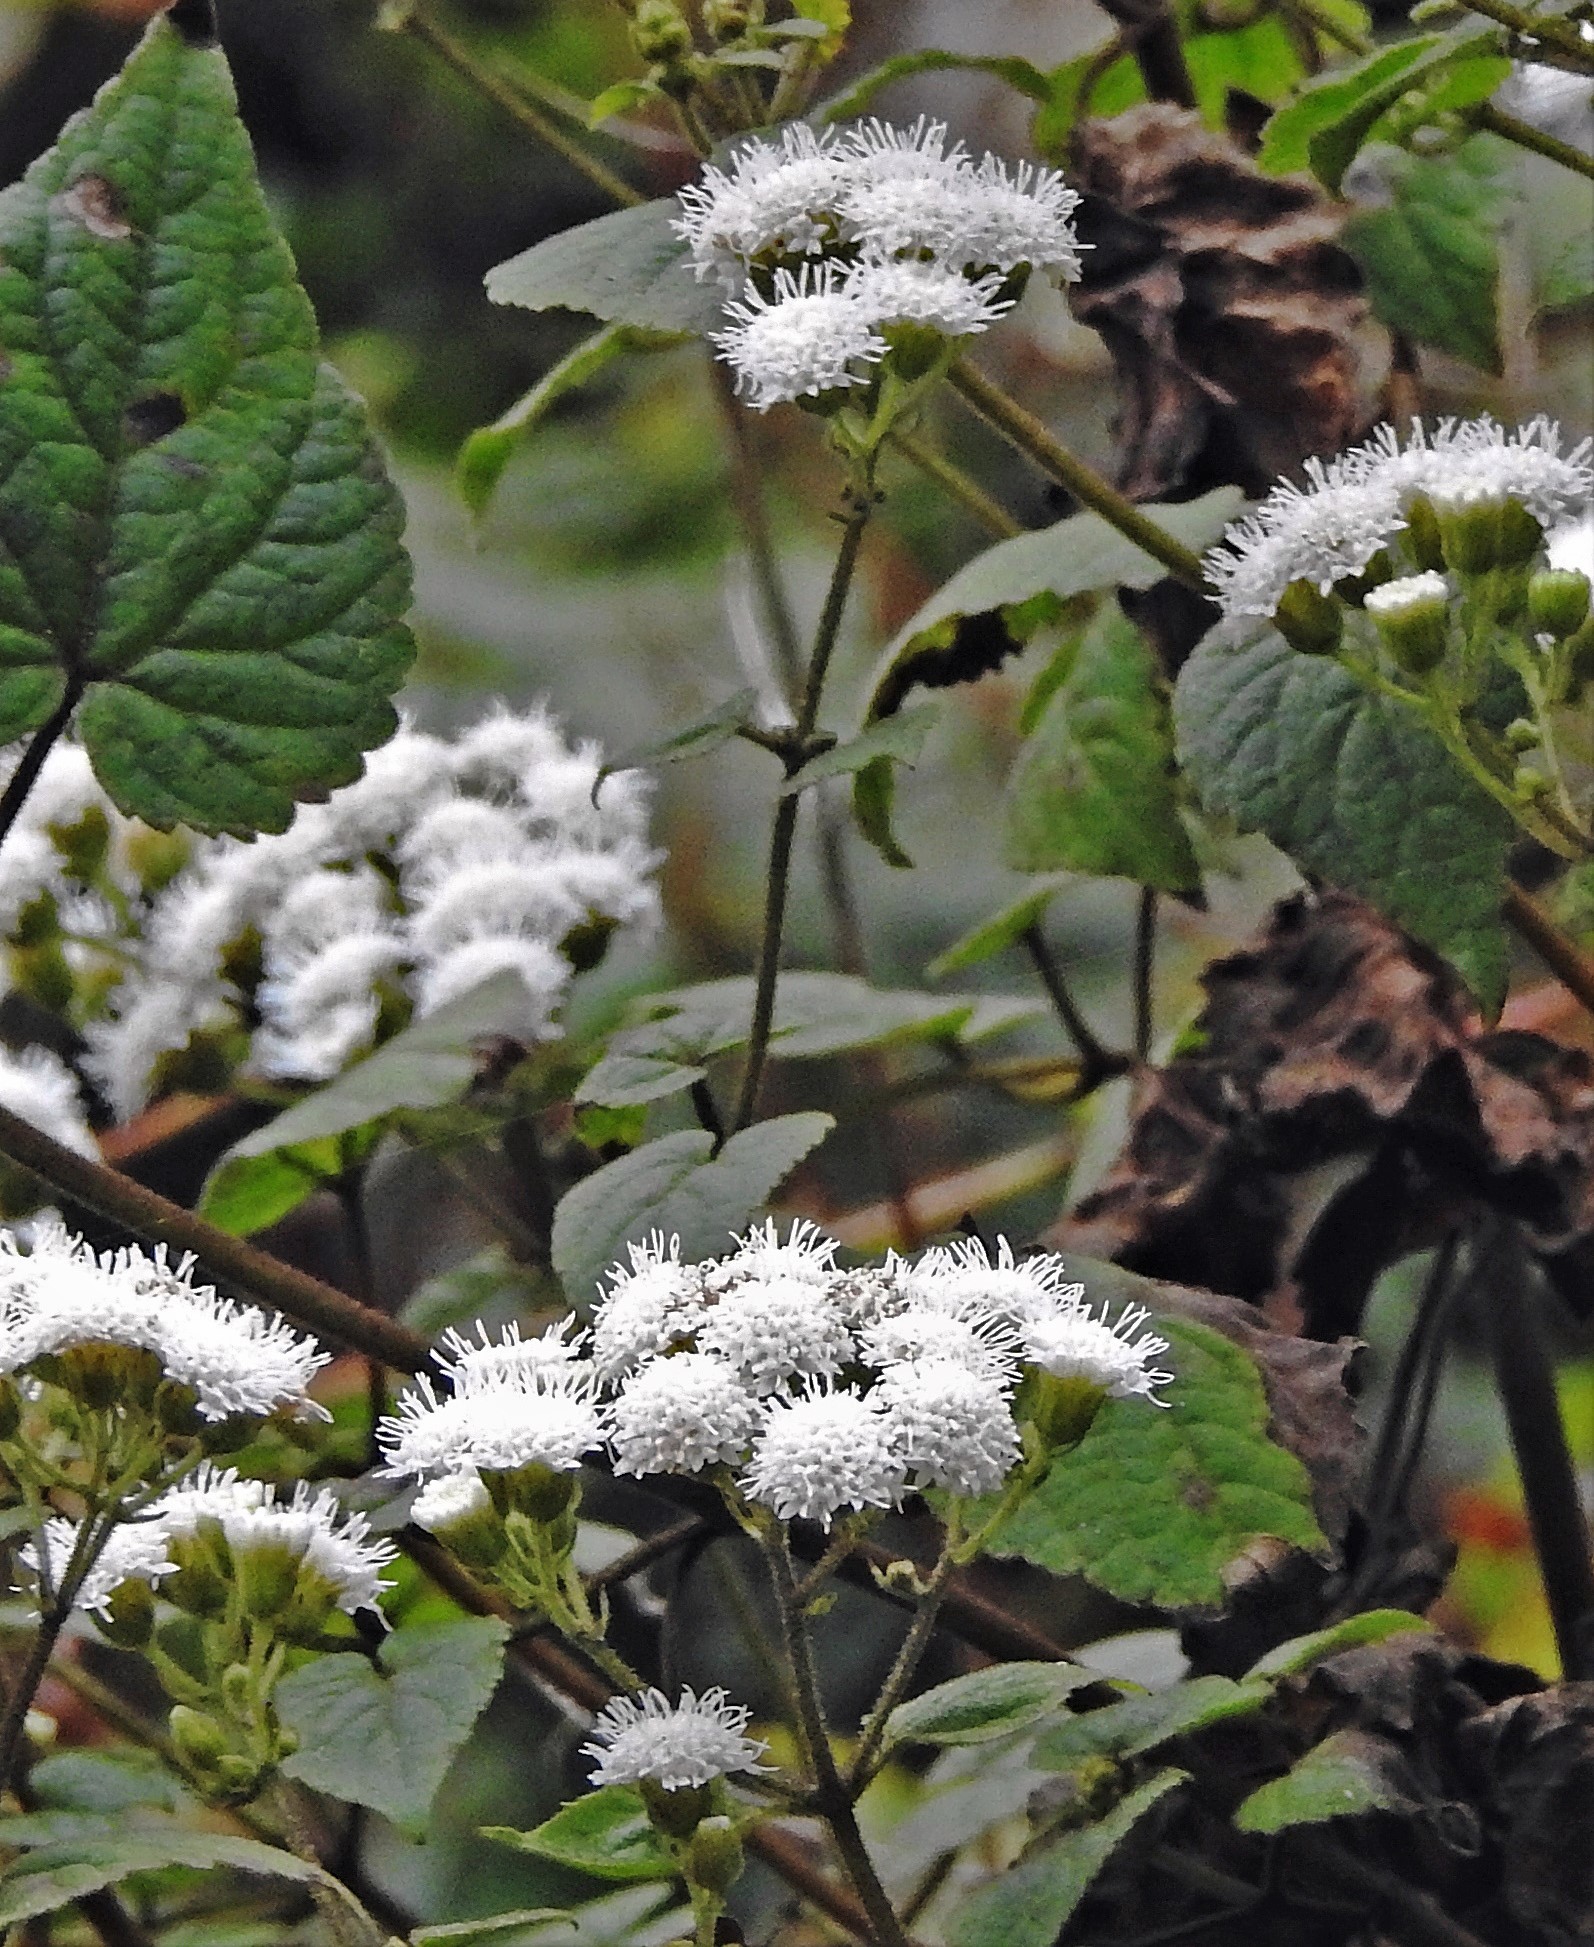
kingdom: Plantae
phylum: Tracheophyta
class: Magnoliopsida
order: Asterales
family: Asteraceae
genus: Ageratina
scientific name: Ageratina tenuis
